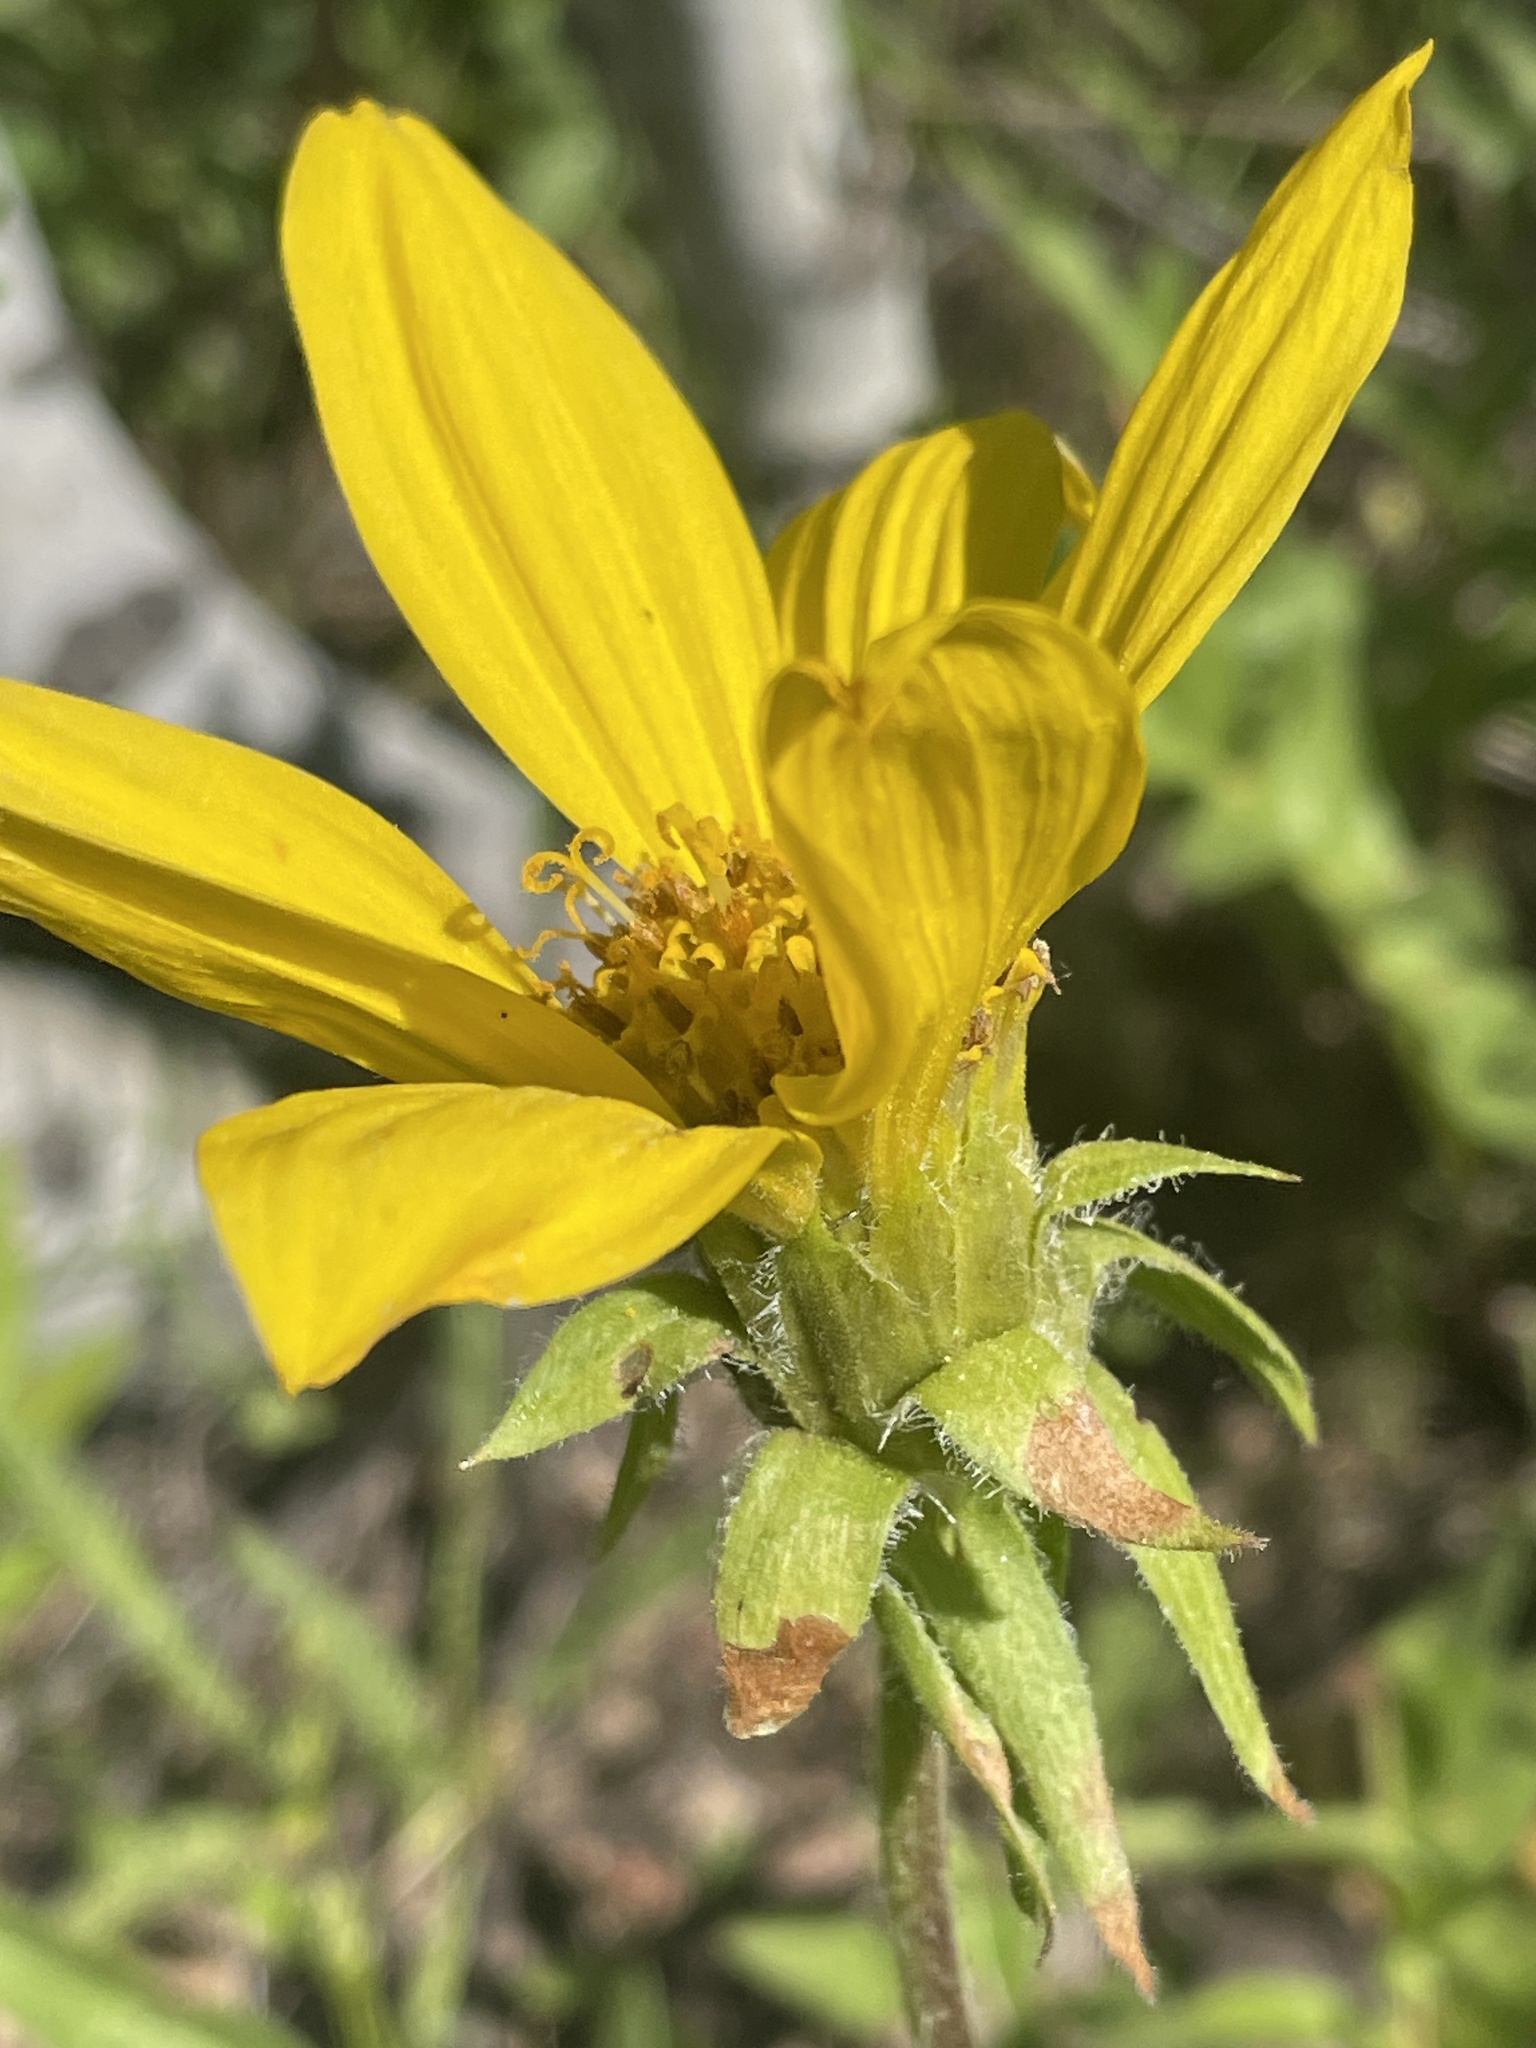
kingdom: Plantae
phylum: Tracheophyta
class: Magnoliopsida
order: Asterales
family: Asteraceae
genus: Balsamorhiza
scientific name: Balsamorhiza macrophylla
